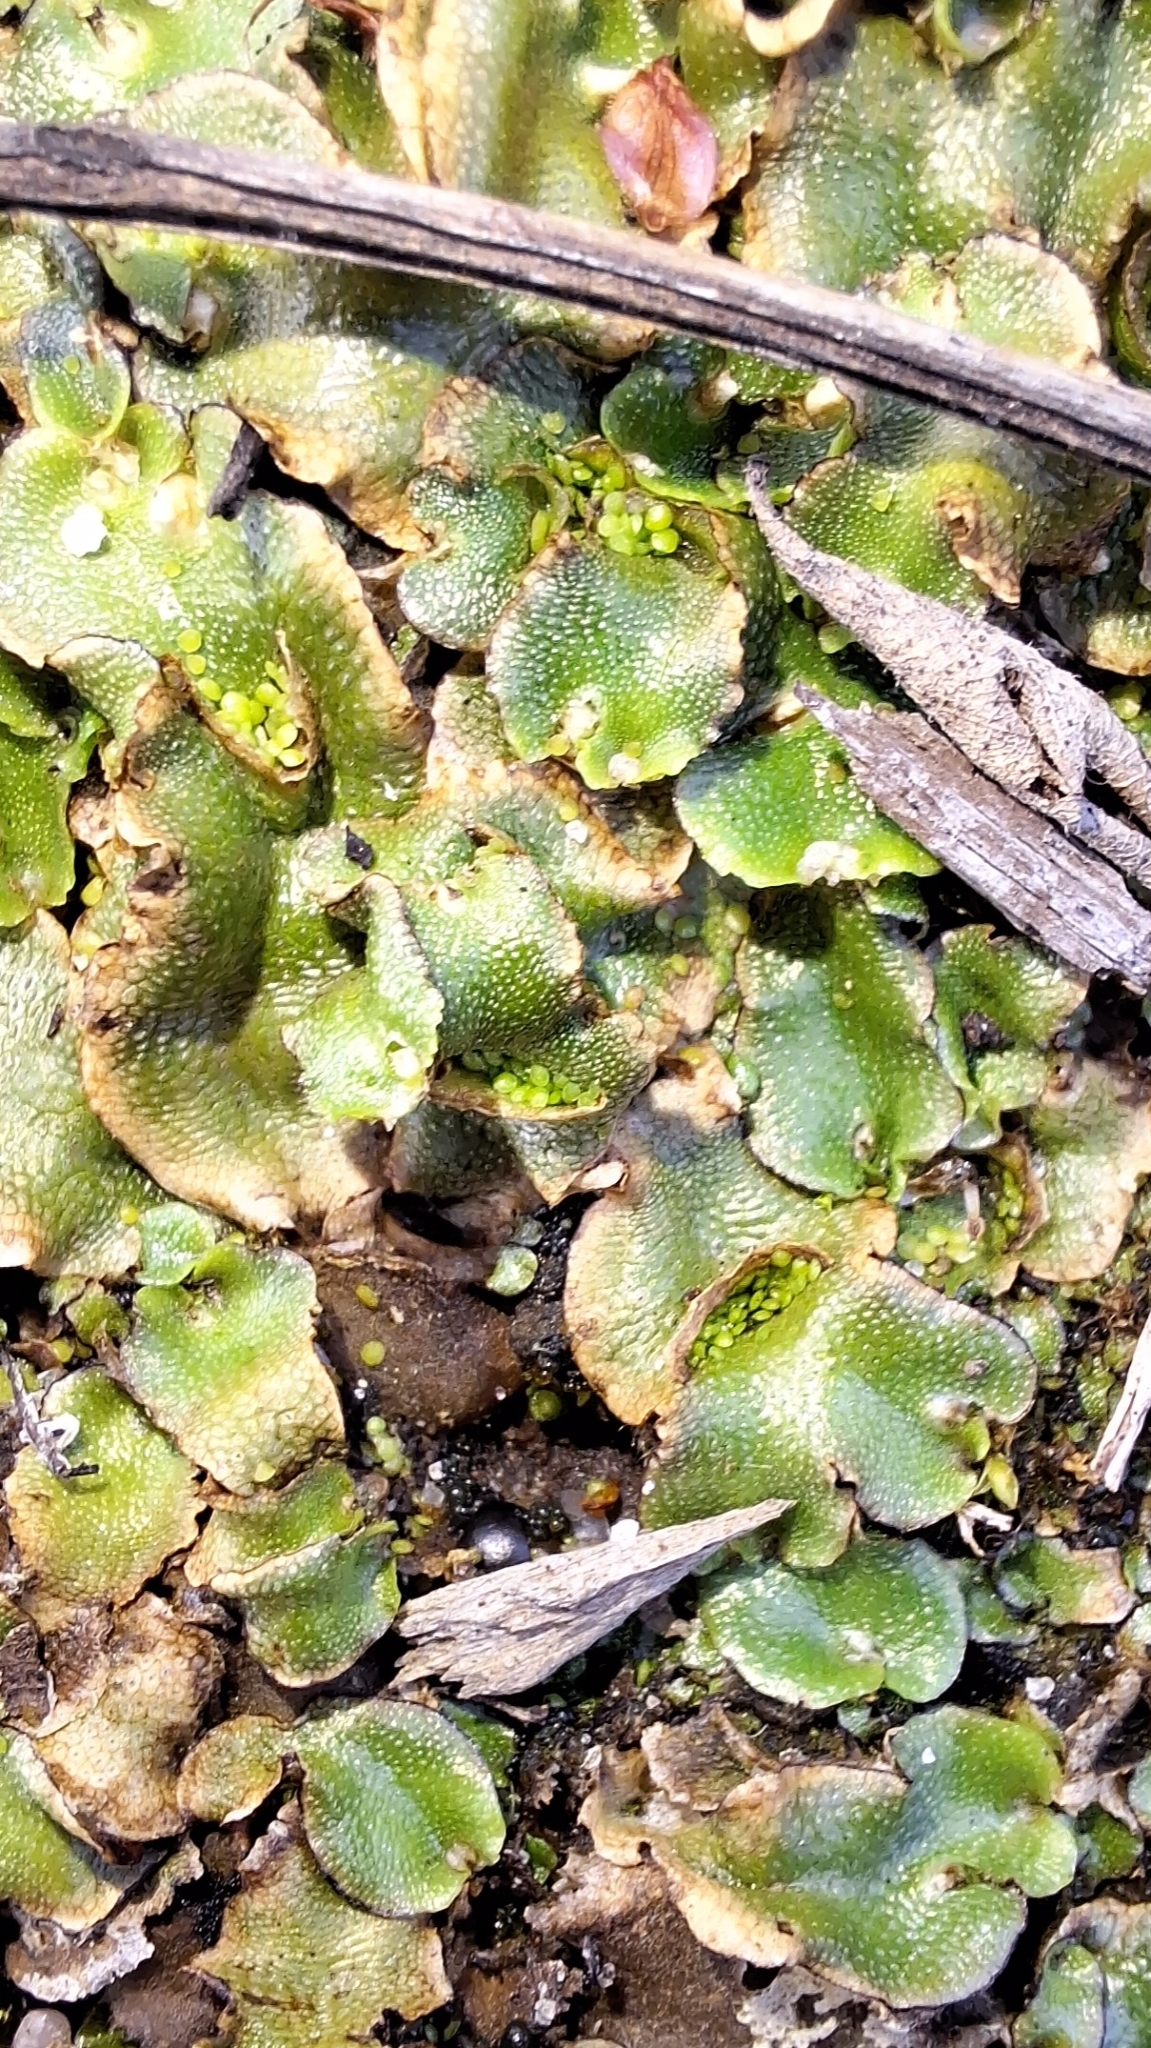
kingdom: Plantae
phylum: Marchantiophyta
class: Marchantiopsida
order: Lunulariales
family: Lunulariaceae
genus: Lunularia
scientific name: Lunularia cruciata
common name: Crescent-cup liverwort
